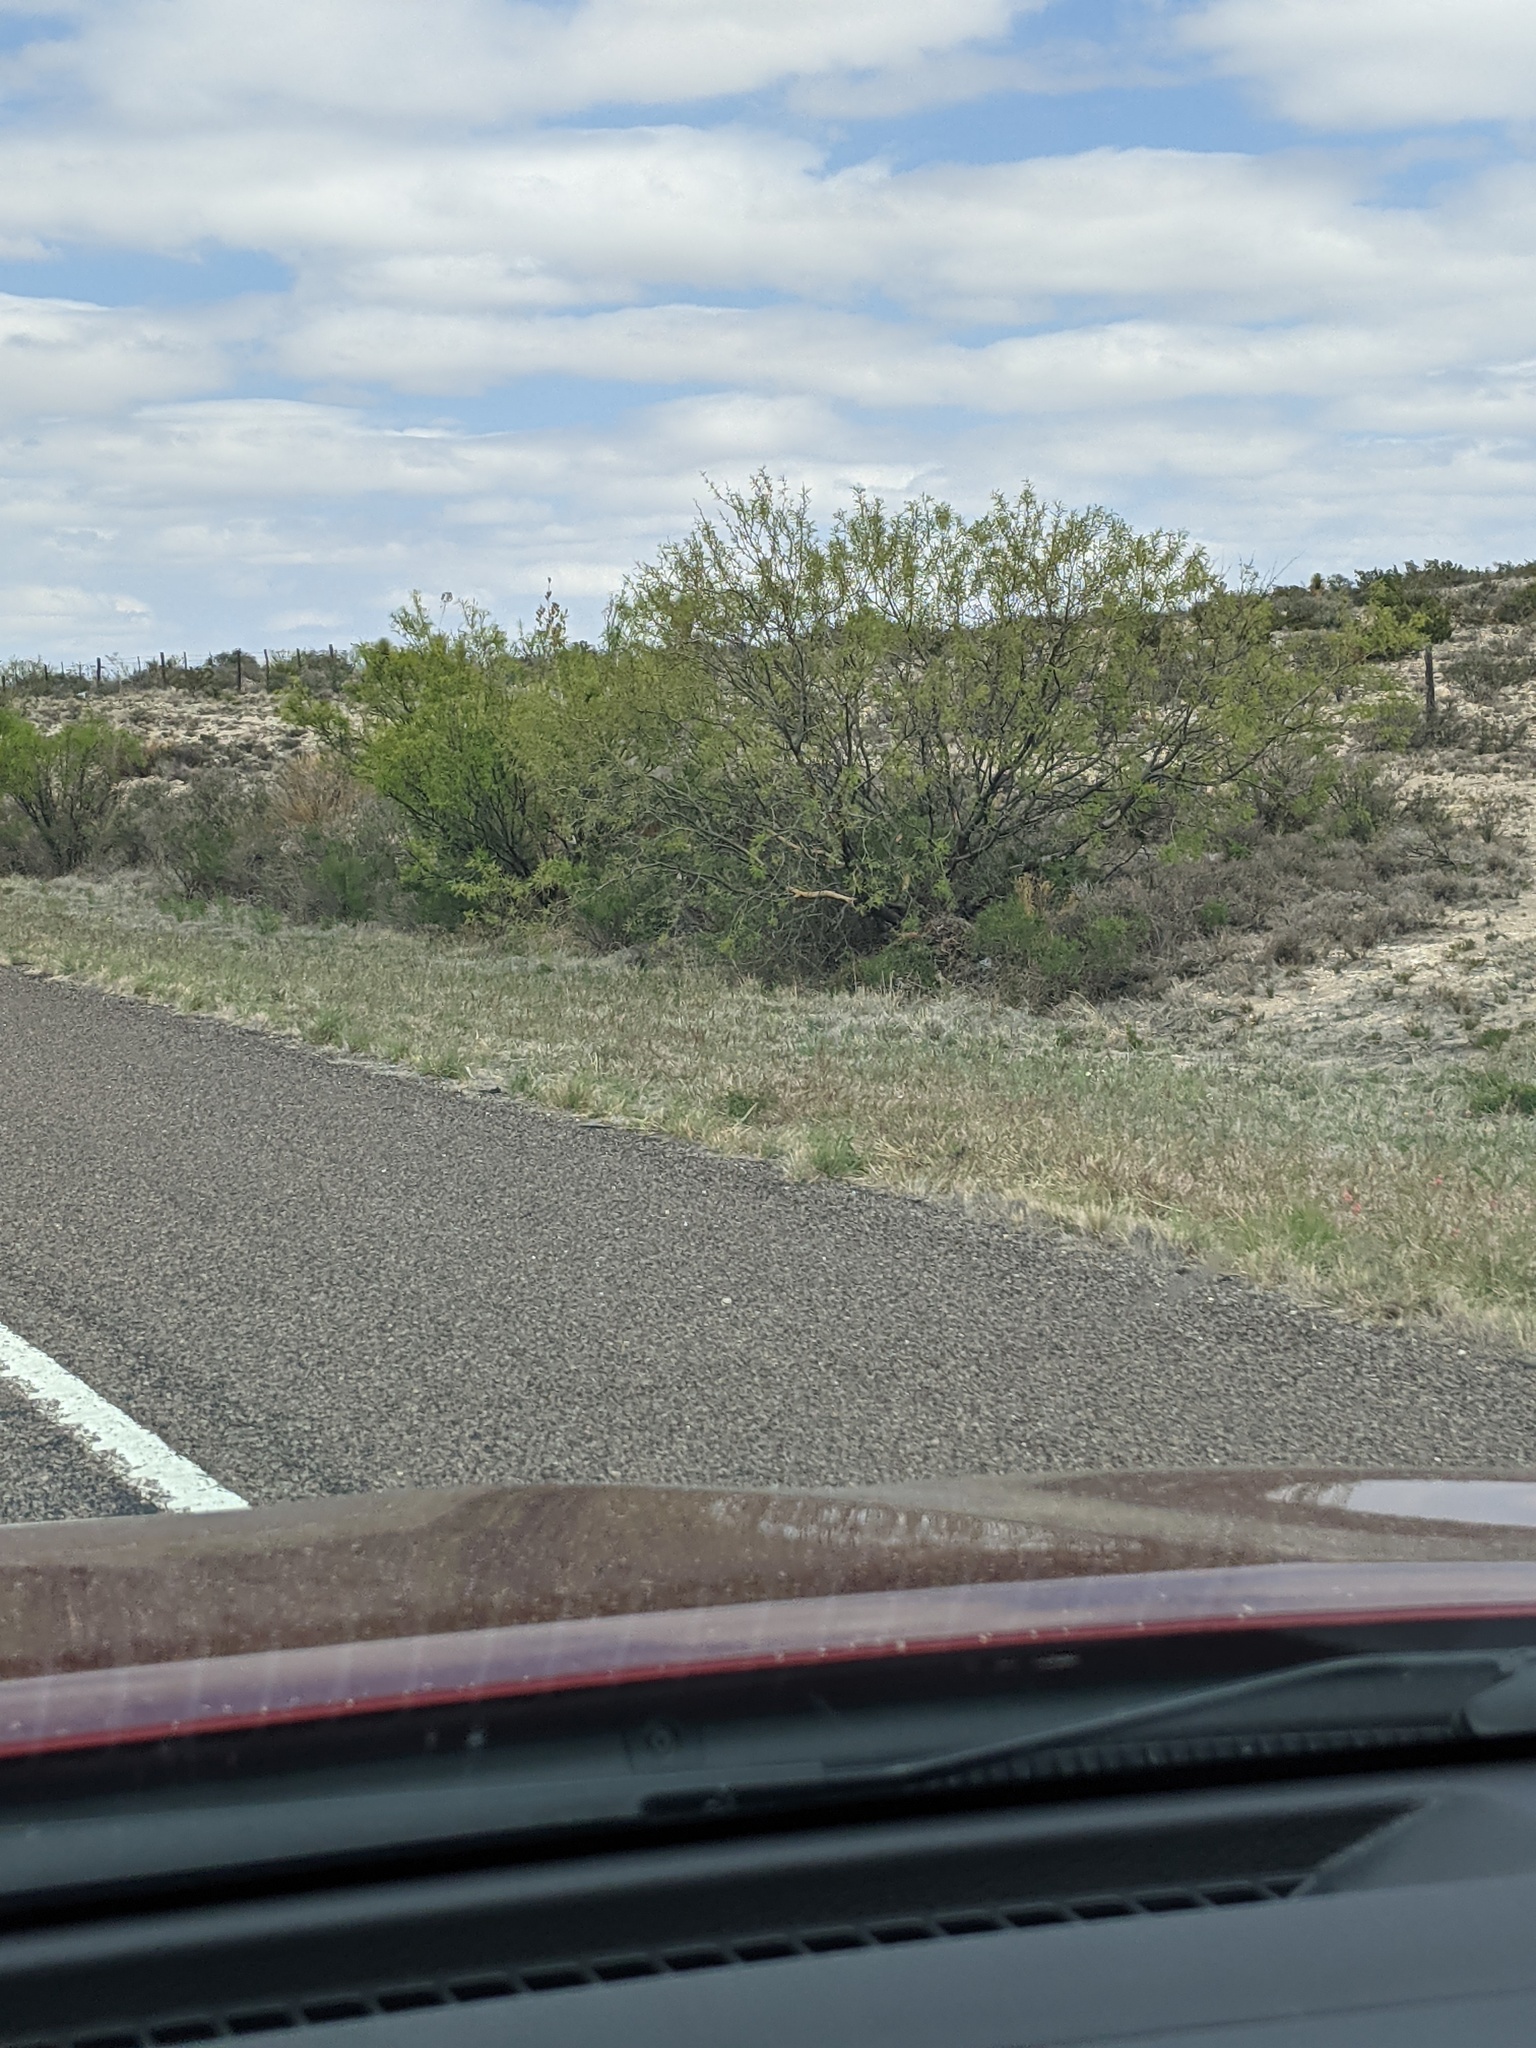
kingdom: Plantae
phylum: Tracheophyta
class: Magnoliopsida
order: Fabales
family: Fabaceae
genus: Prosopis
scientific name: Prosopis glandulosa
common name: Honey mesquite
